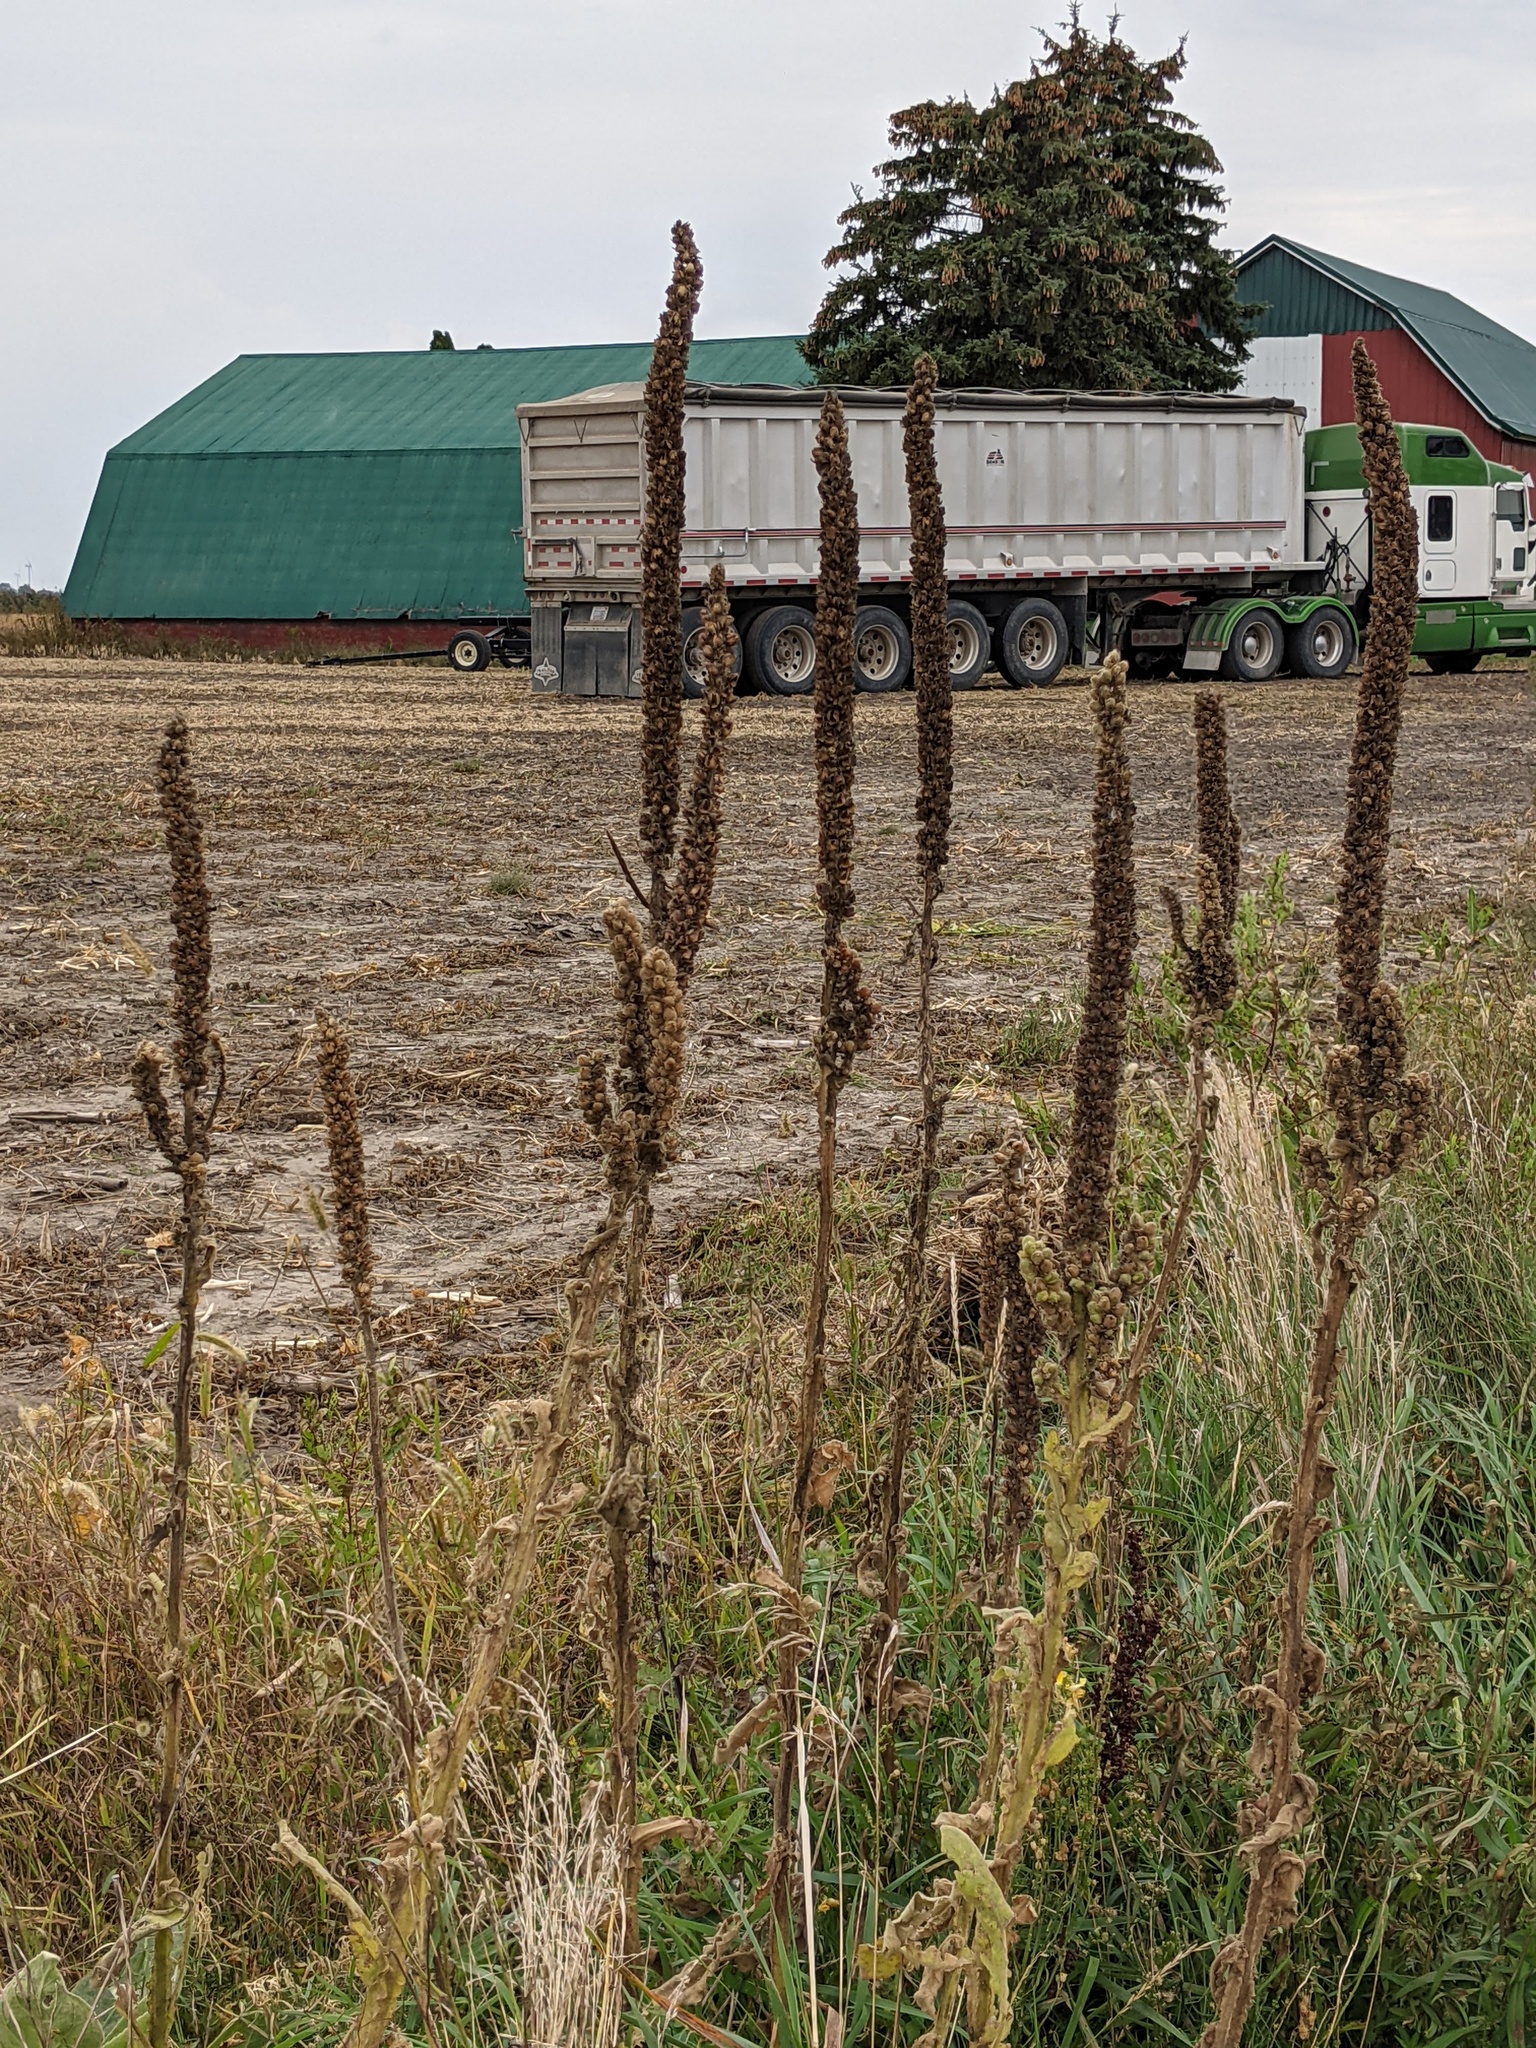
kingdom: Plantae
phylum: Tracheophyta
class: Magnoliopsida
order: Lamiales
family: Scrophulariaceae
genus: Verbascum
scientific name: Verbascum thapsus
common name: Common mullein
